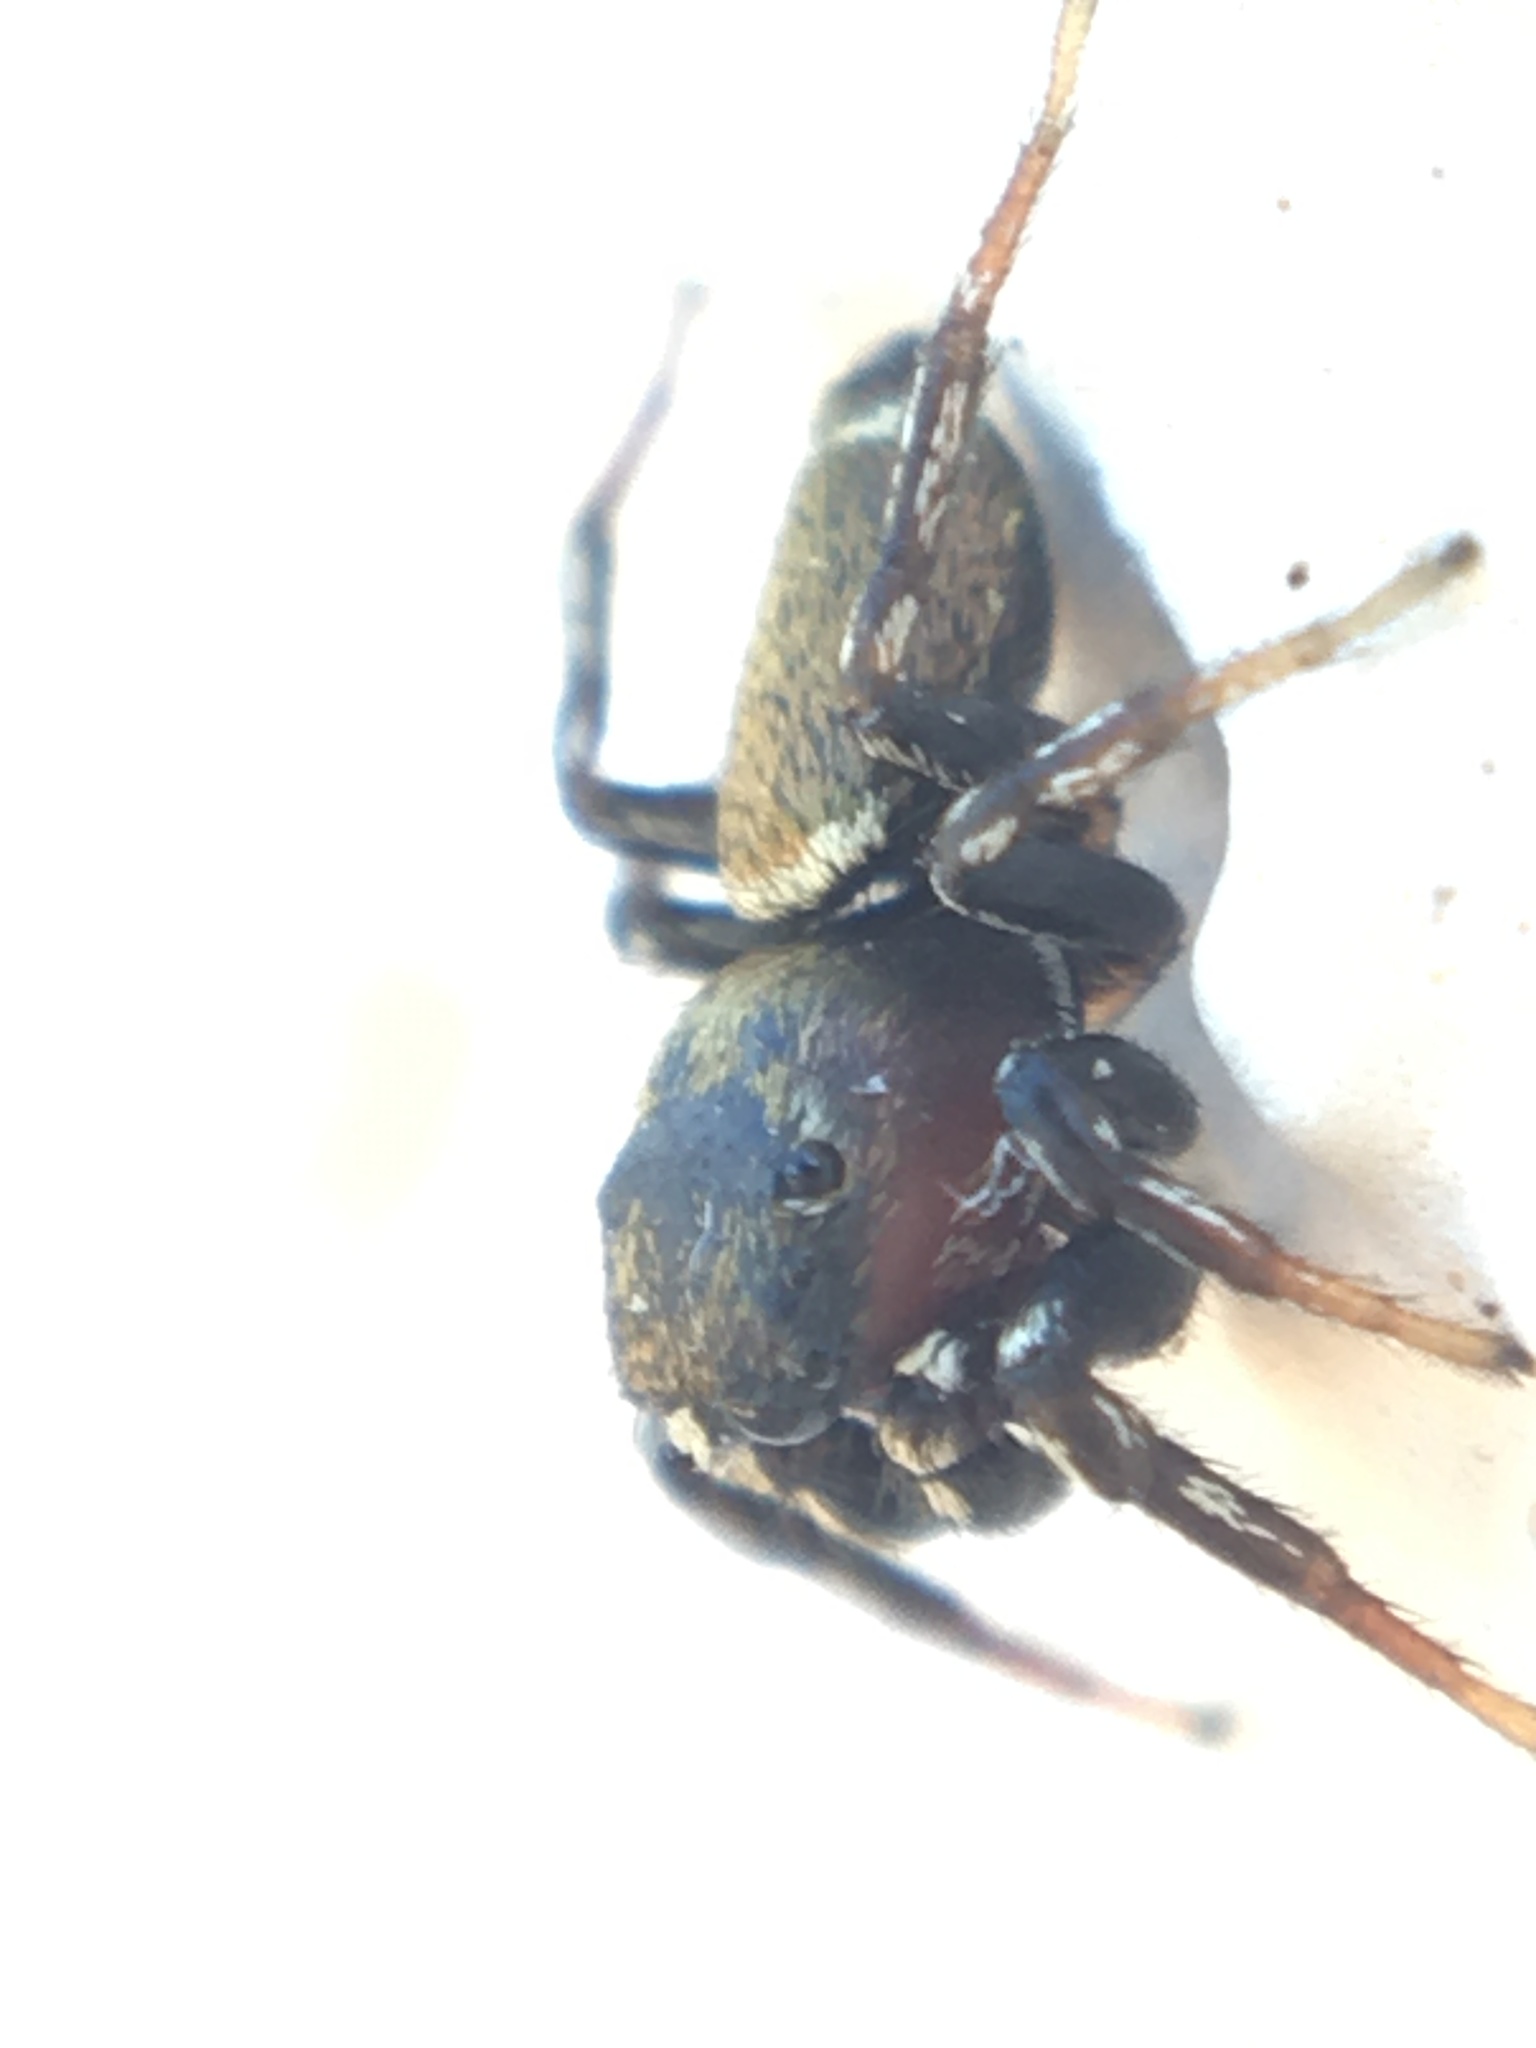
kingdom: Animalia
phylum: Arthropoda
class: Arachnida
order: Araneae
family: Salticidae
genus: Heliophanus
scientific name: Heliophanus tribulosus
